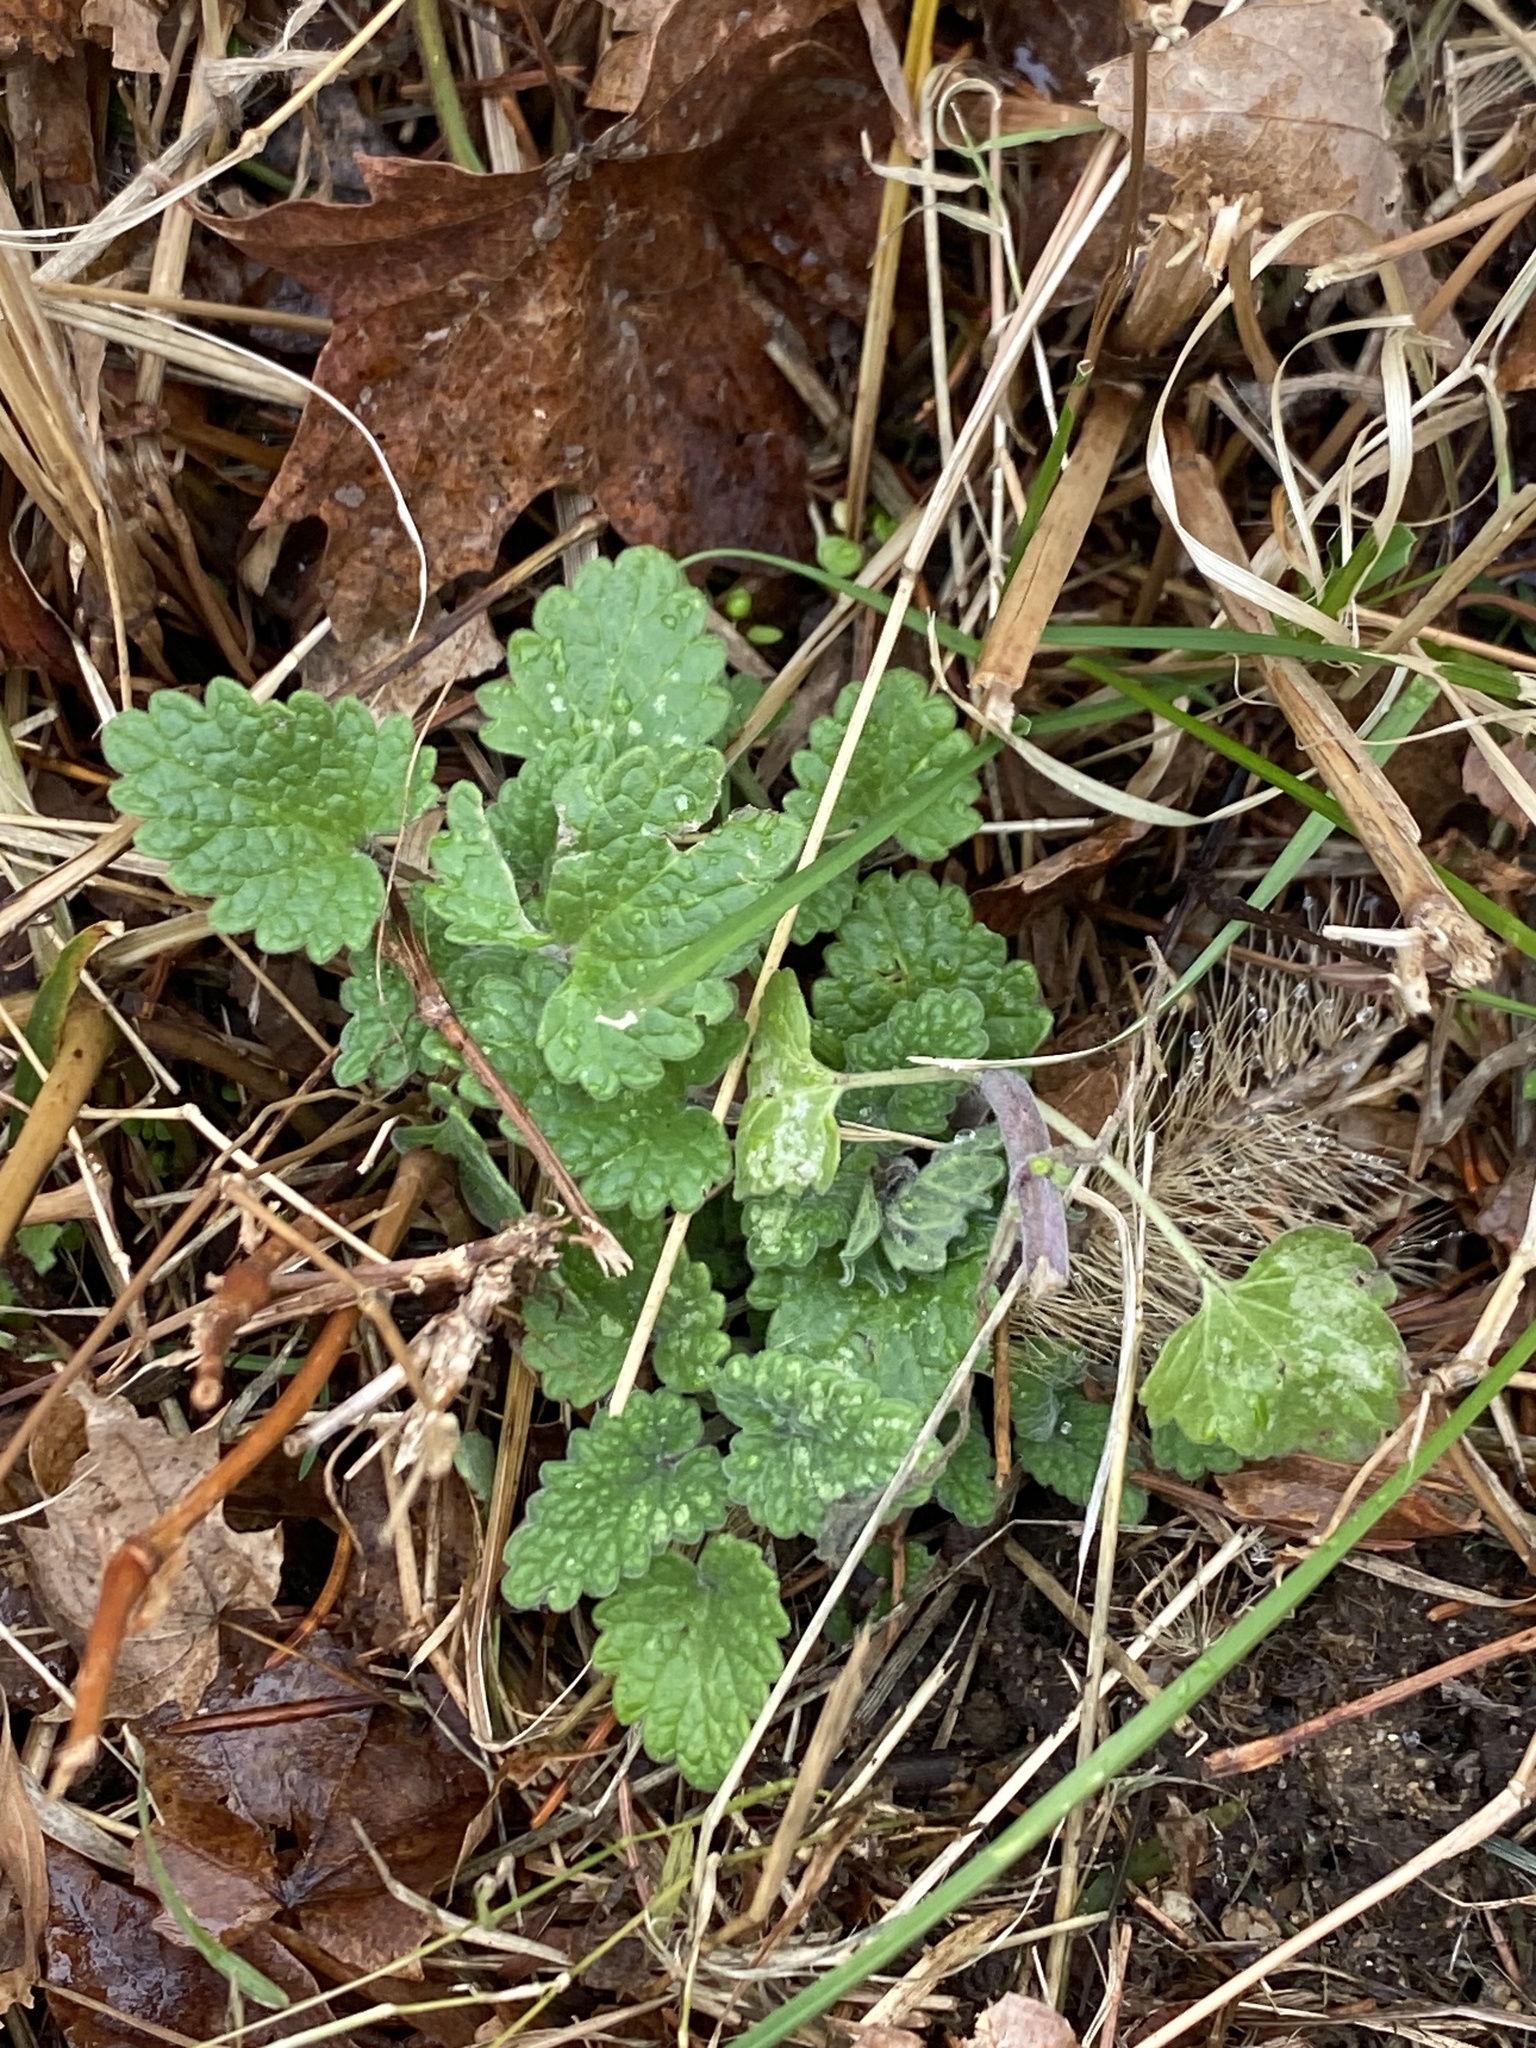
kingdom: Plantae
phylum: Tracheophyta
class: Magnoliopsida
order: Lamiales
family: Lamiaceae
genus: Nepeta
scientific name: Nepeta cataria
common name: Catnip
